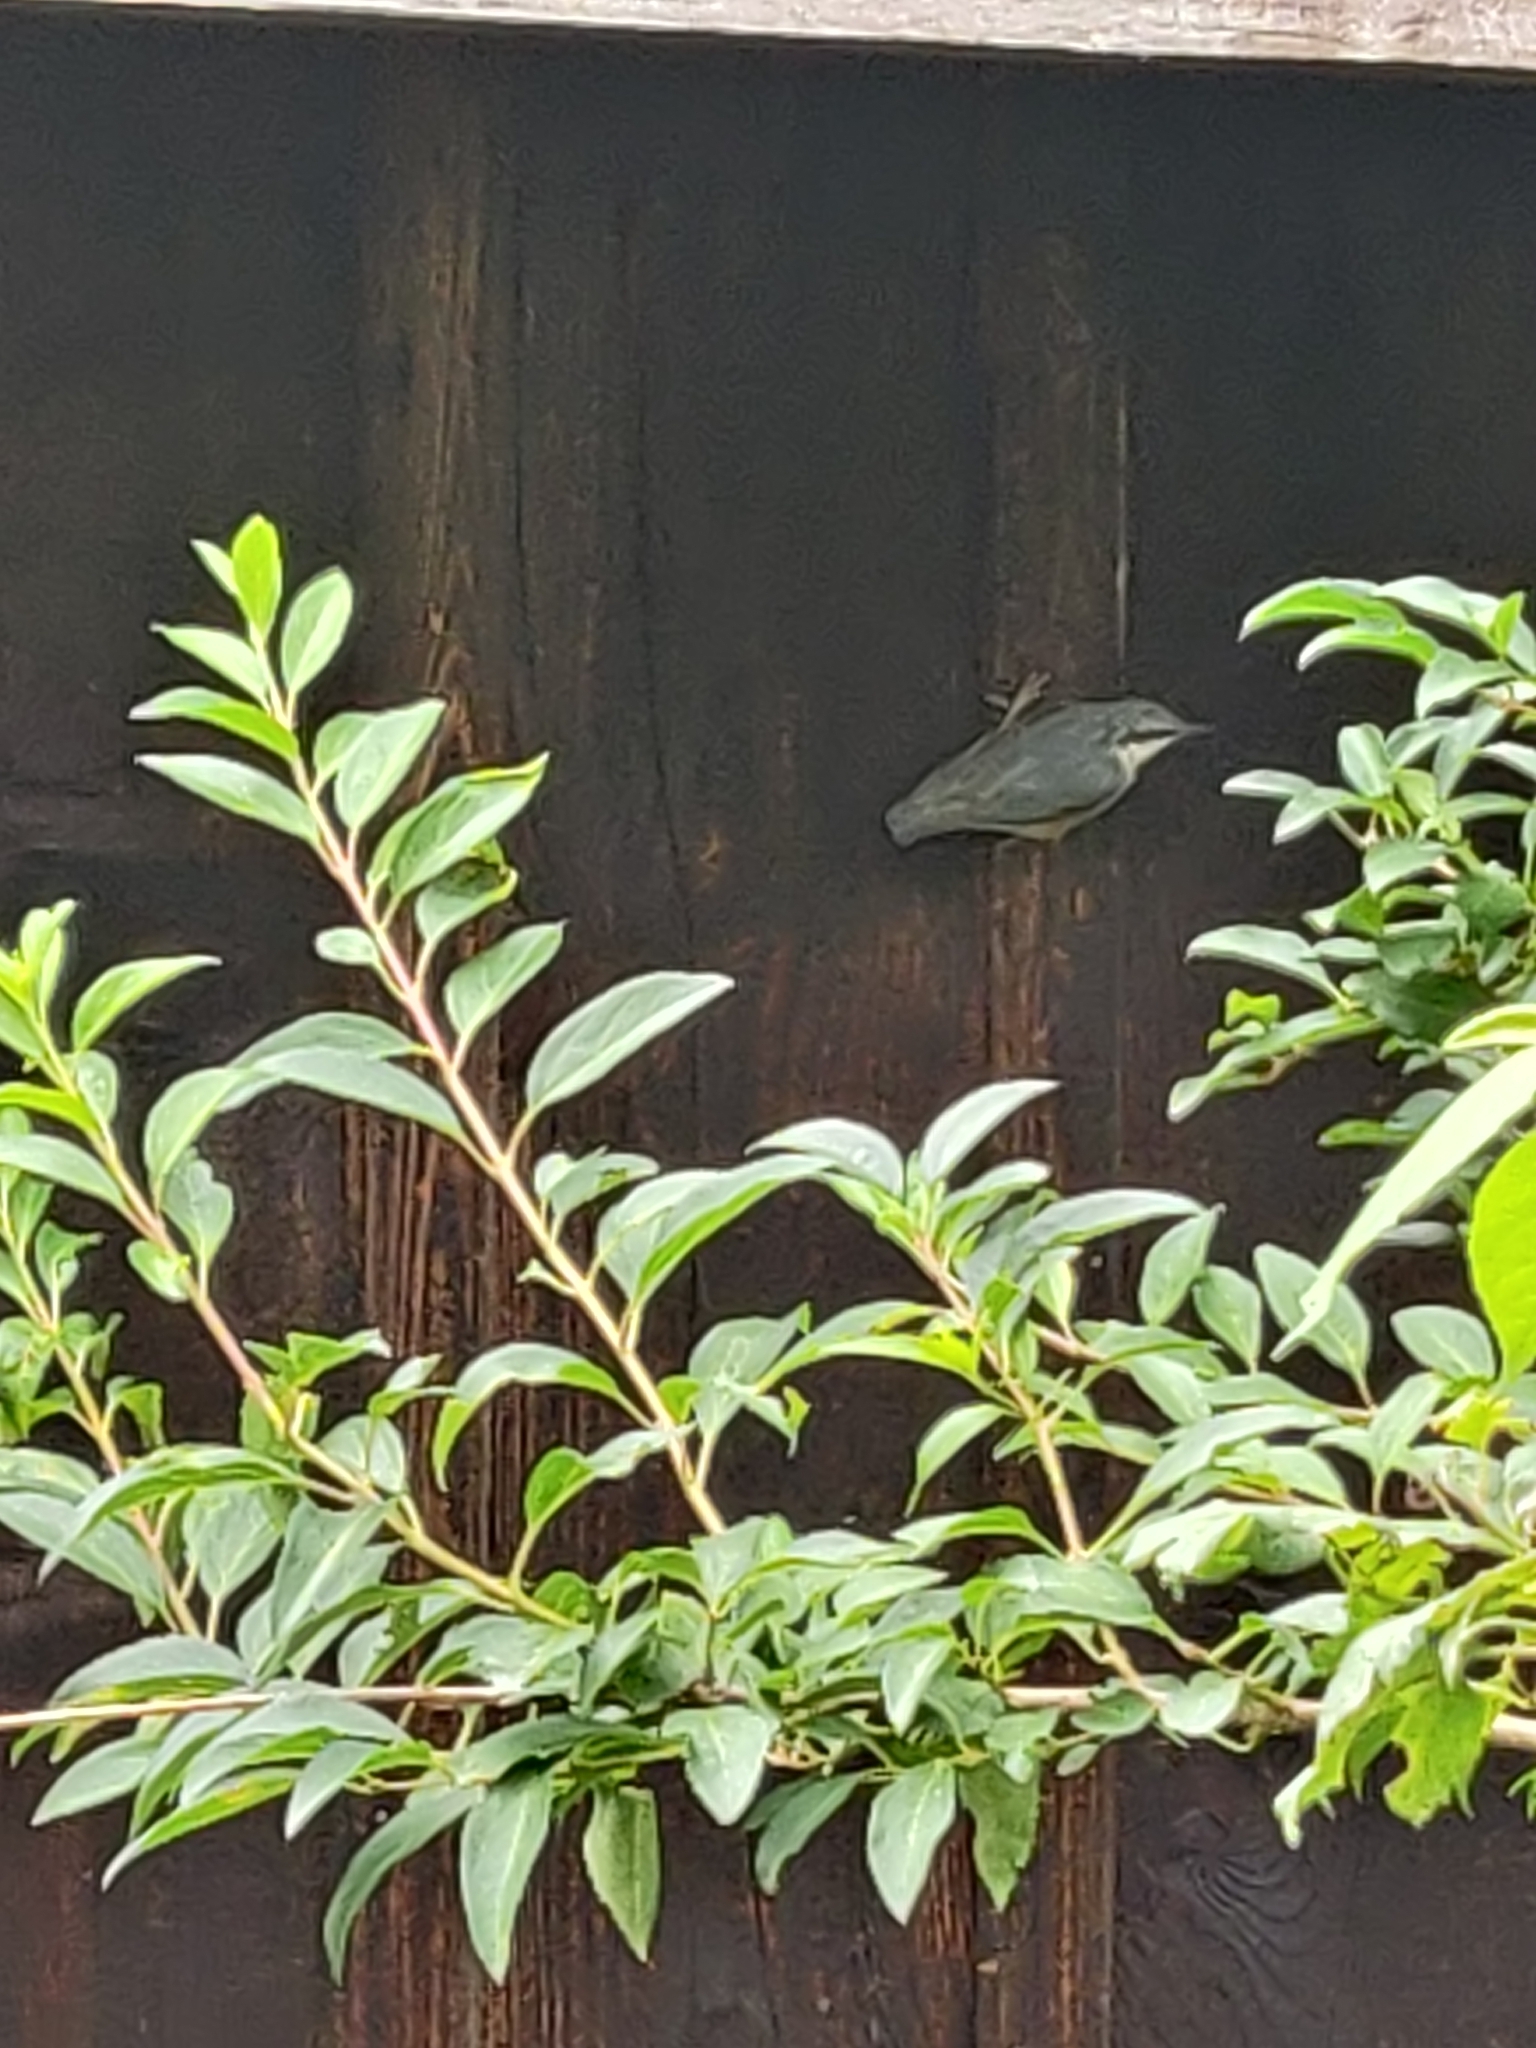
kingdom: Animalia
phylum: Chordata
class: Aves
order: Passeriformes
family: Sittidae
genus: Sitta
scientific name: Sitta europaea
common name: Eurasian nuthatch
